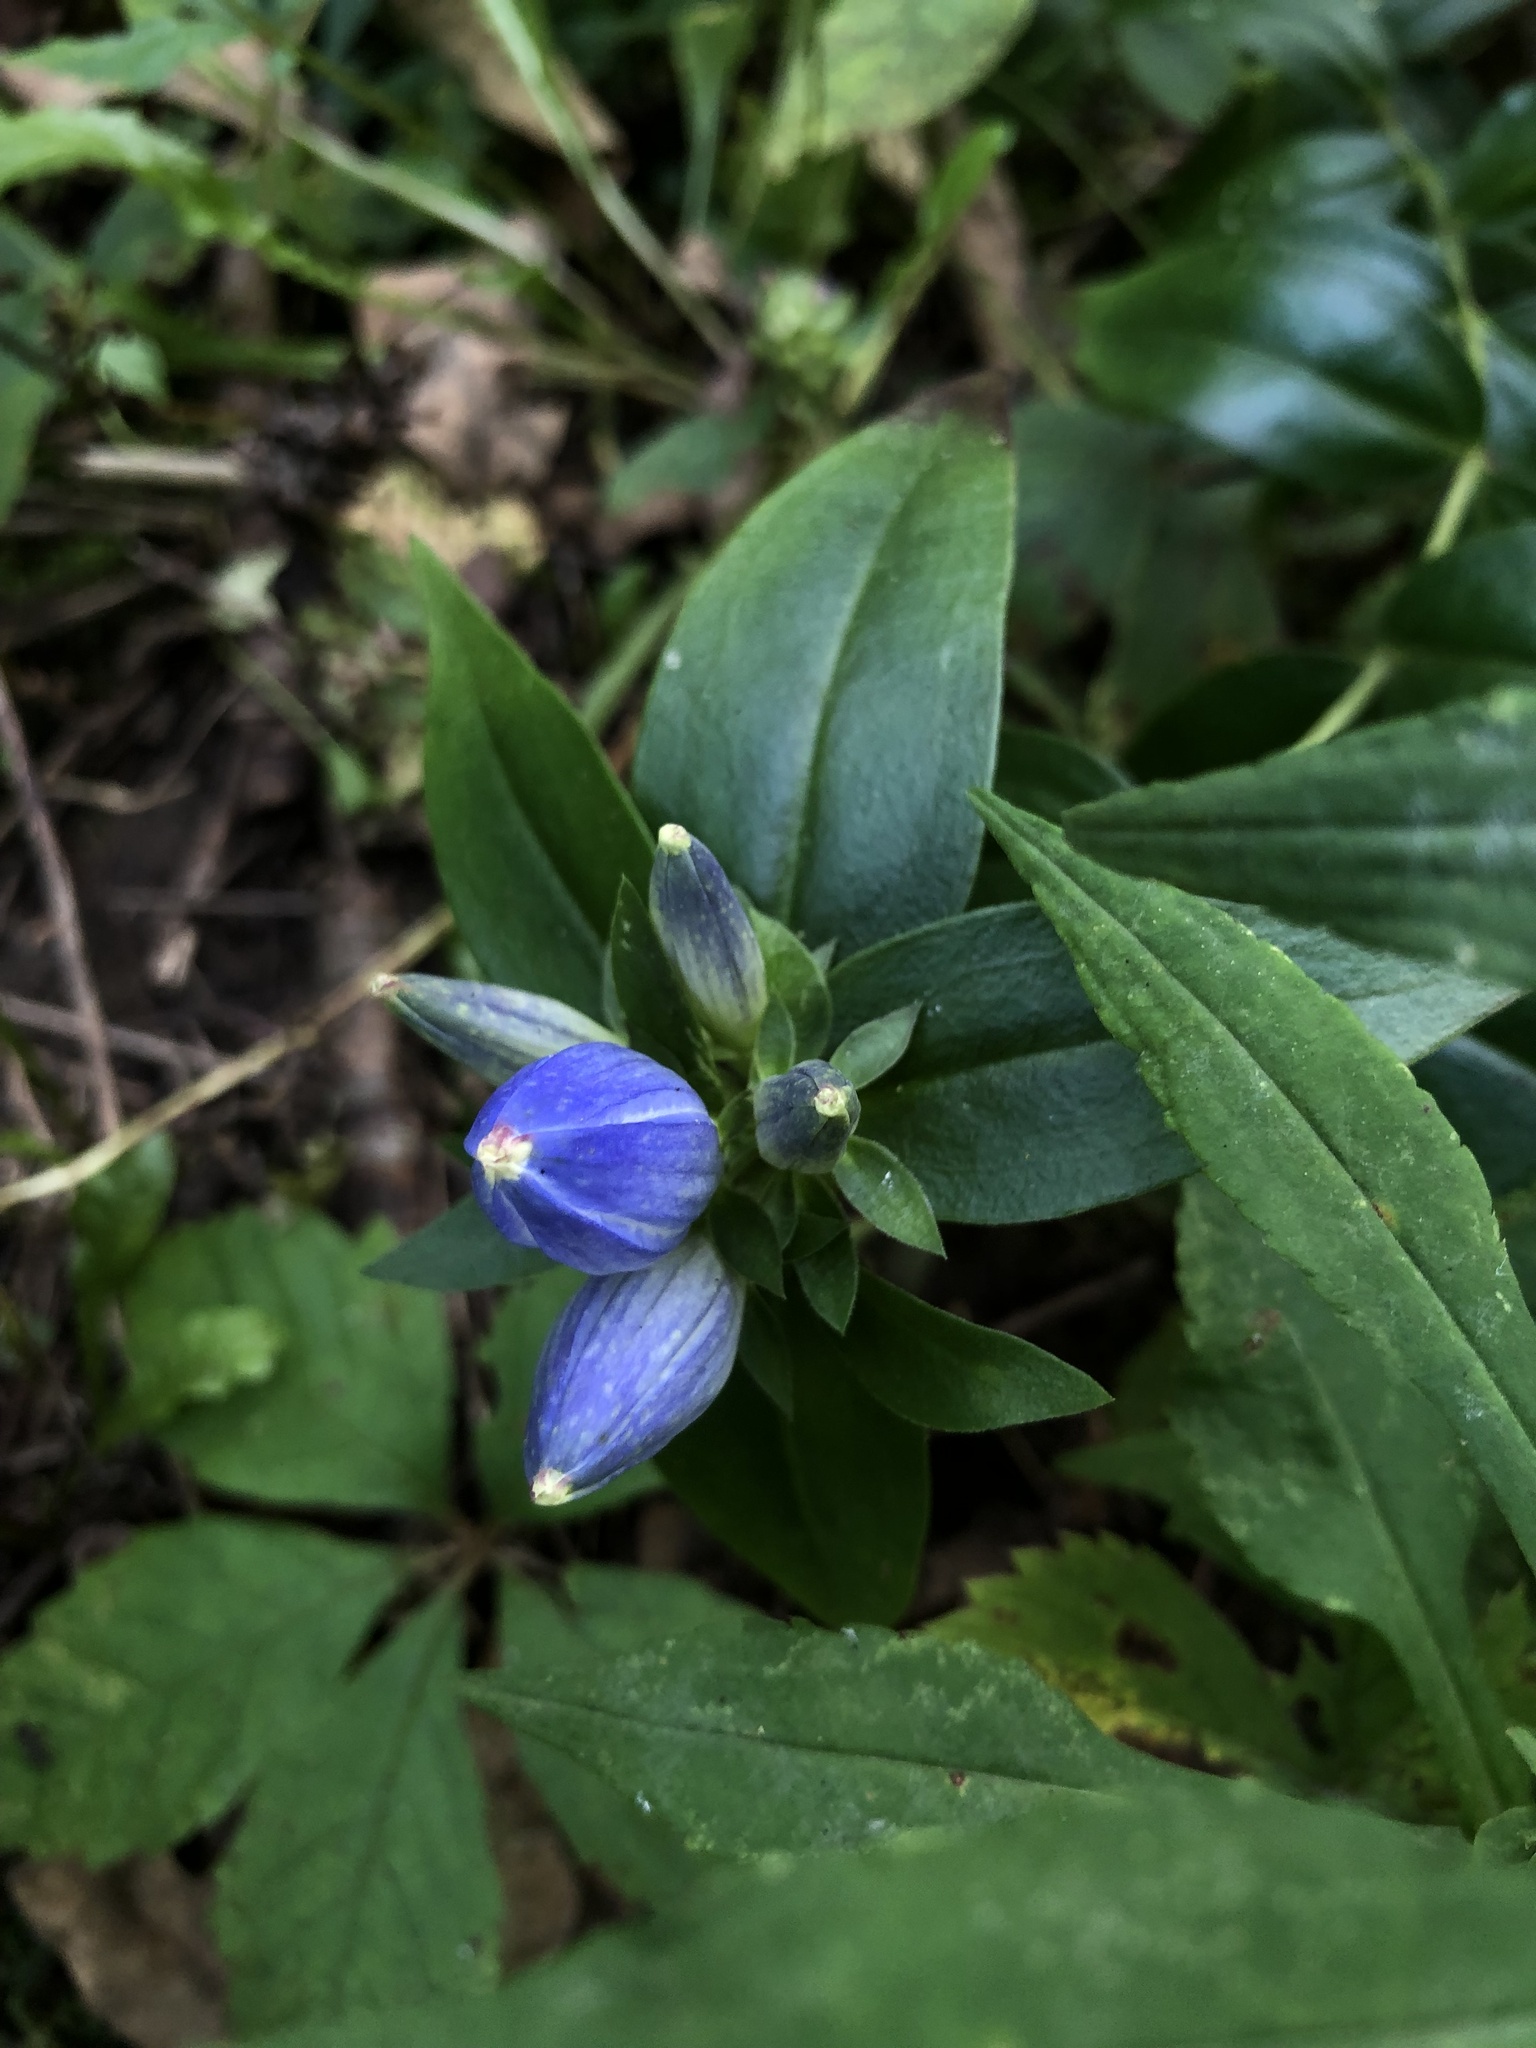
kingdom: Plantae
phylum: Tracheophyta
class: Magnoliopsida
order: Gentianales
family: Gentianaceae
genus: Gentiana
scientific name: Gentiana andrewsii
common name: Bottle gentian
